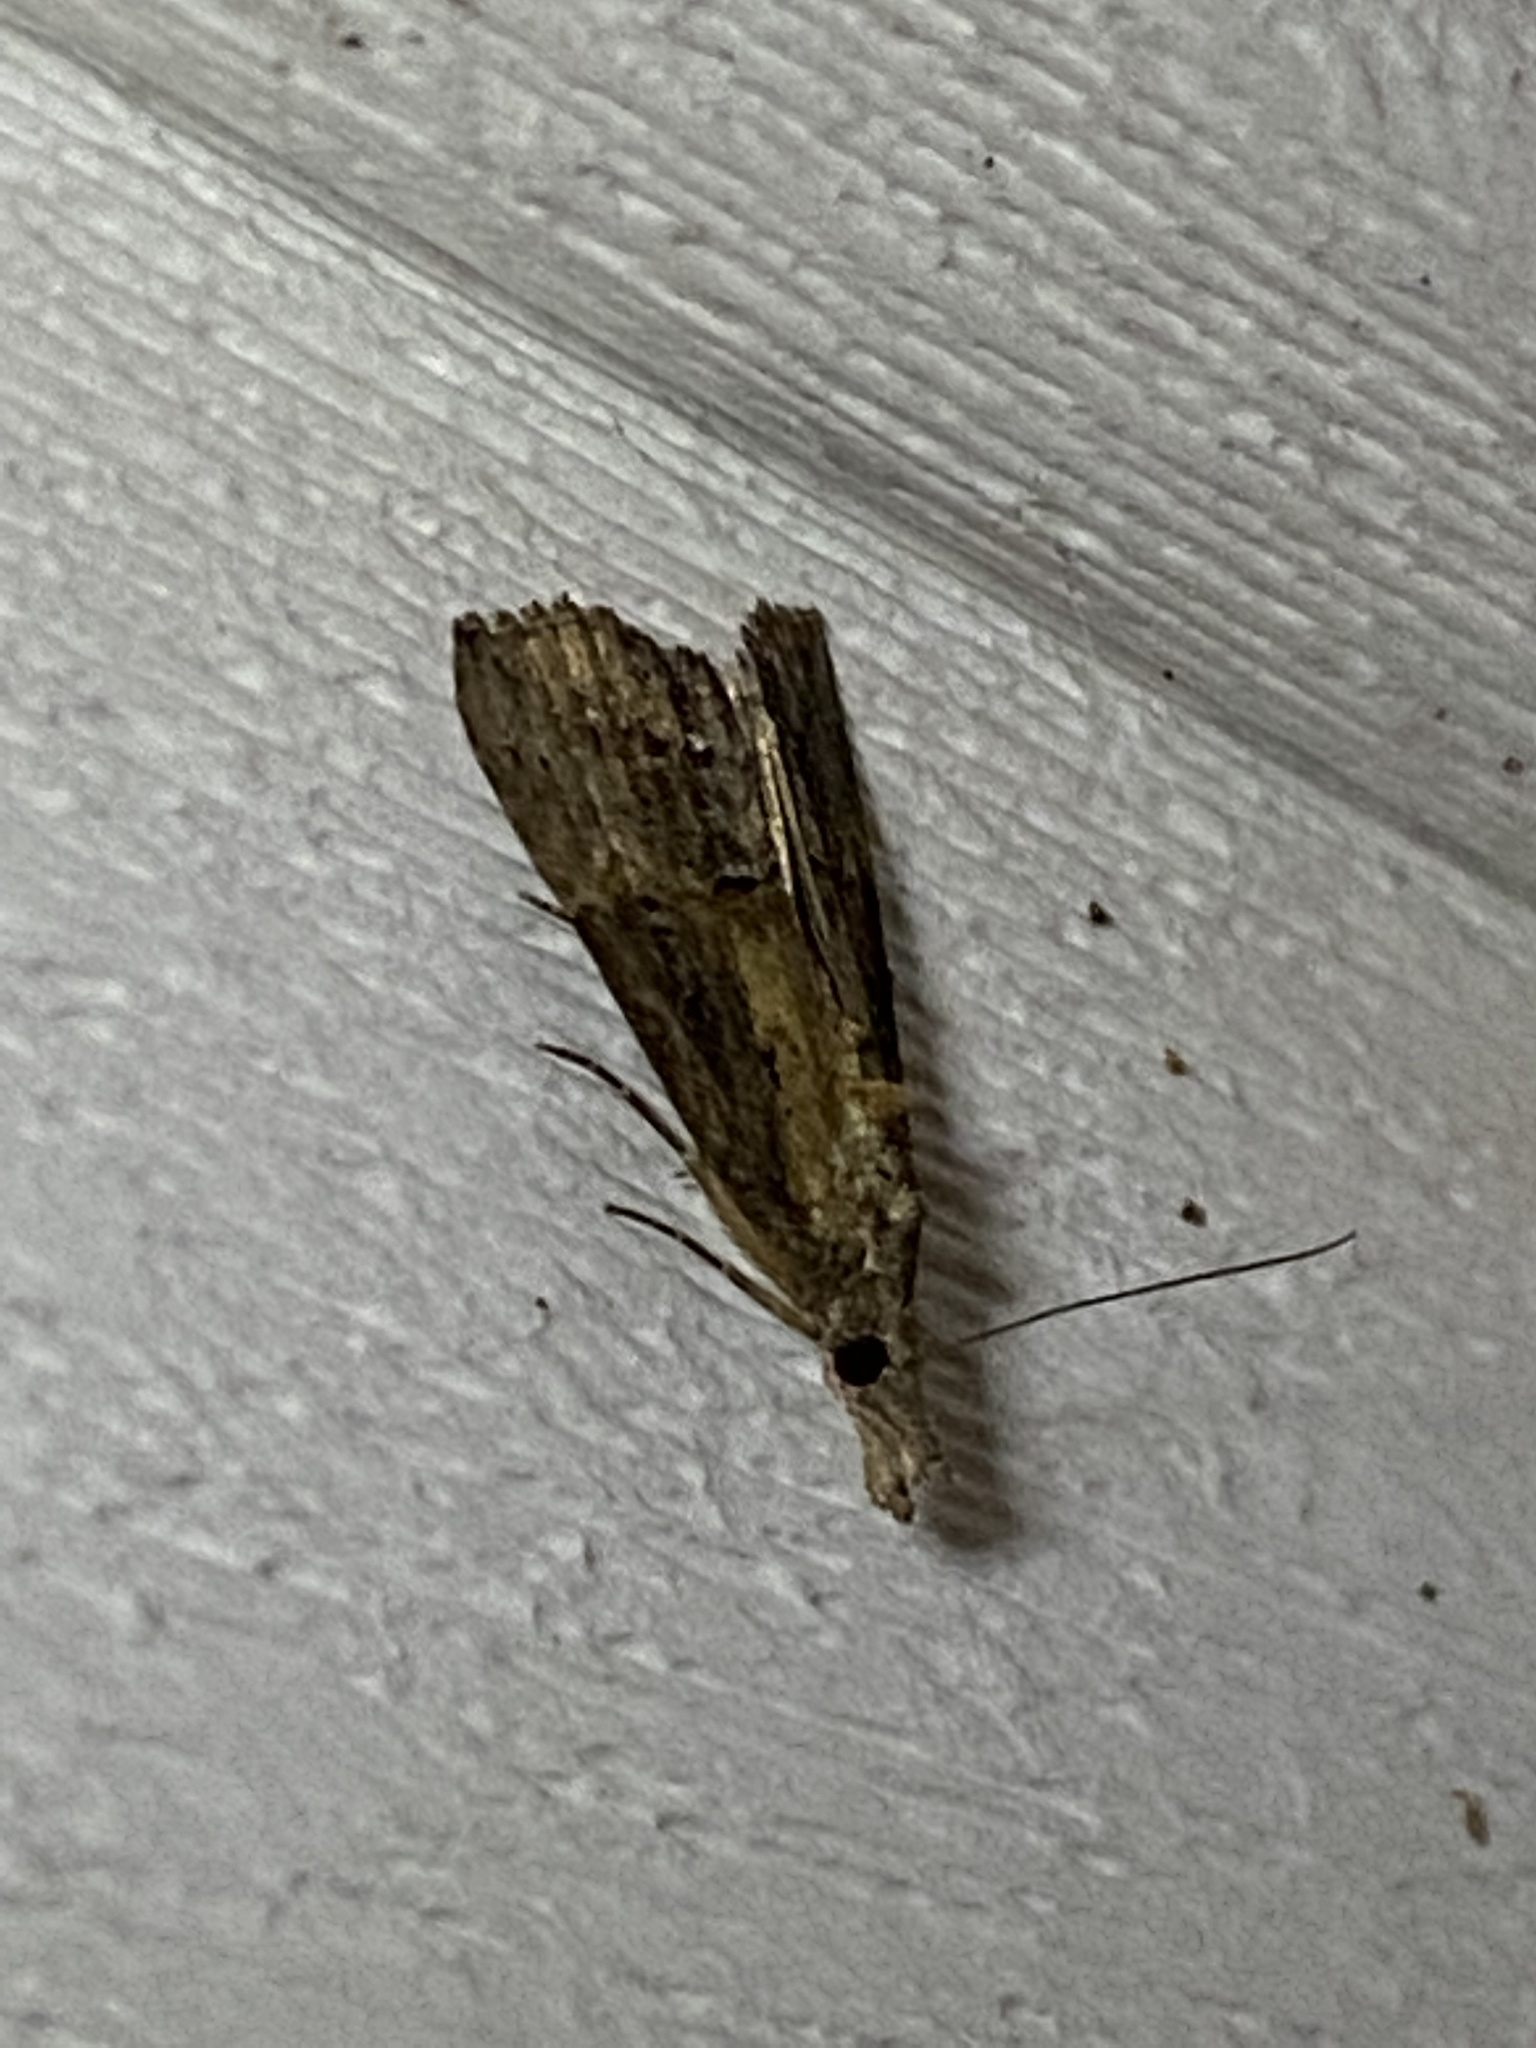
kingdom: Animalia
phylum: Arthropoda
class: Insecta
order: Lepidoptera
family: Erebidae
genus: Hypena
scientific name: Hypena scabra
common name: Green cloverworm
